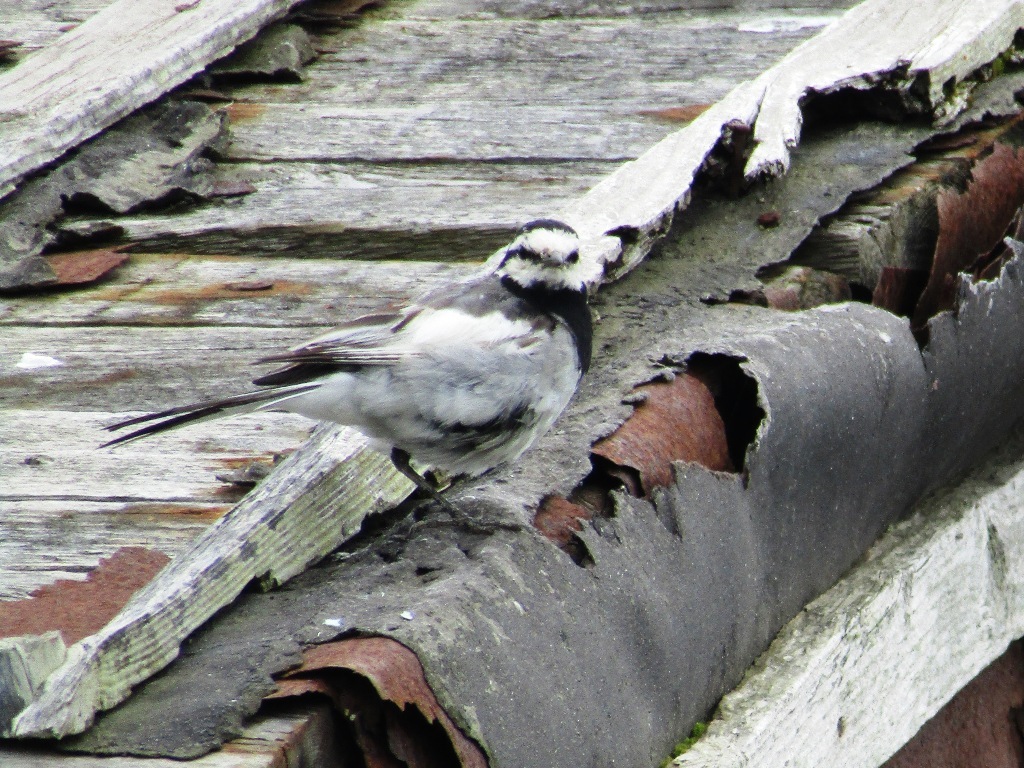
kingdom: Animalia
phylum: Chordata
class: Aves
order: Passeriformes
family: Motacillidae
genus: Motacilla
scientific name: Motacilla alba
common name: White wagtail
